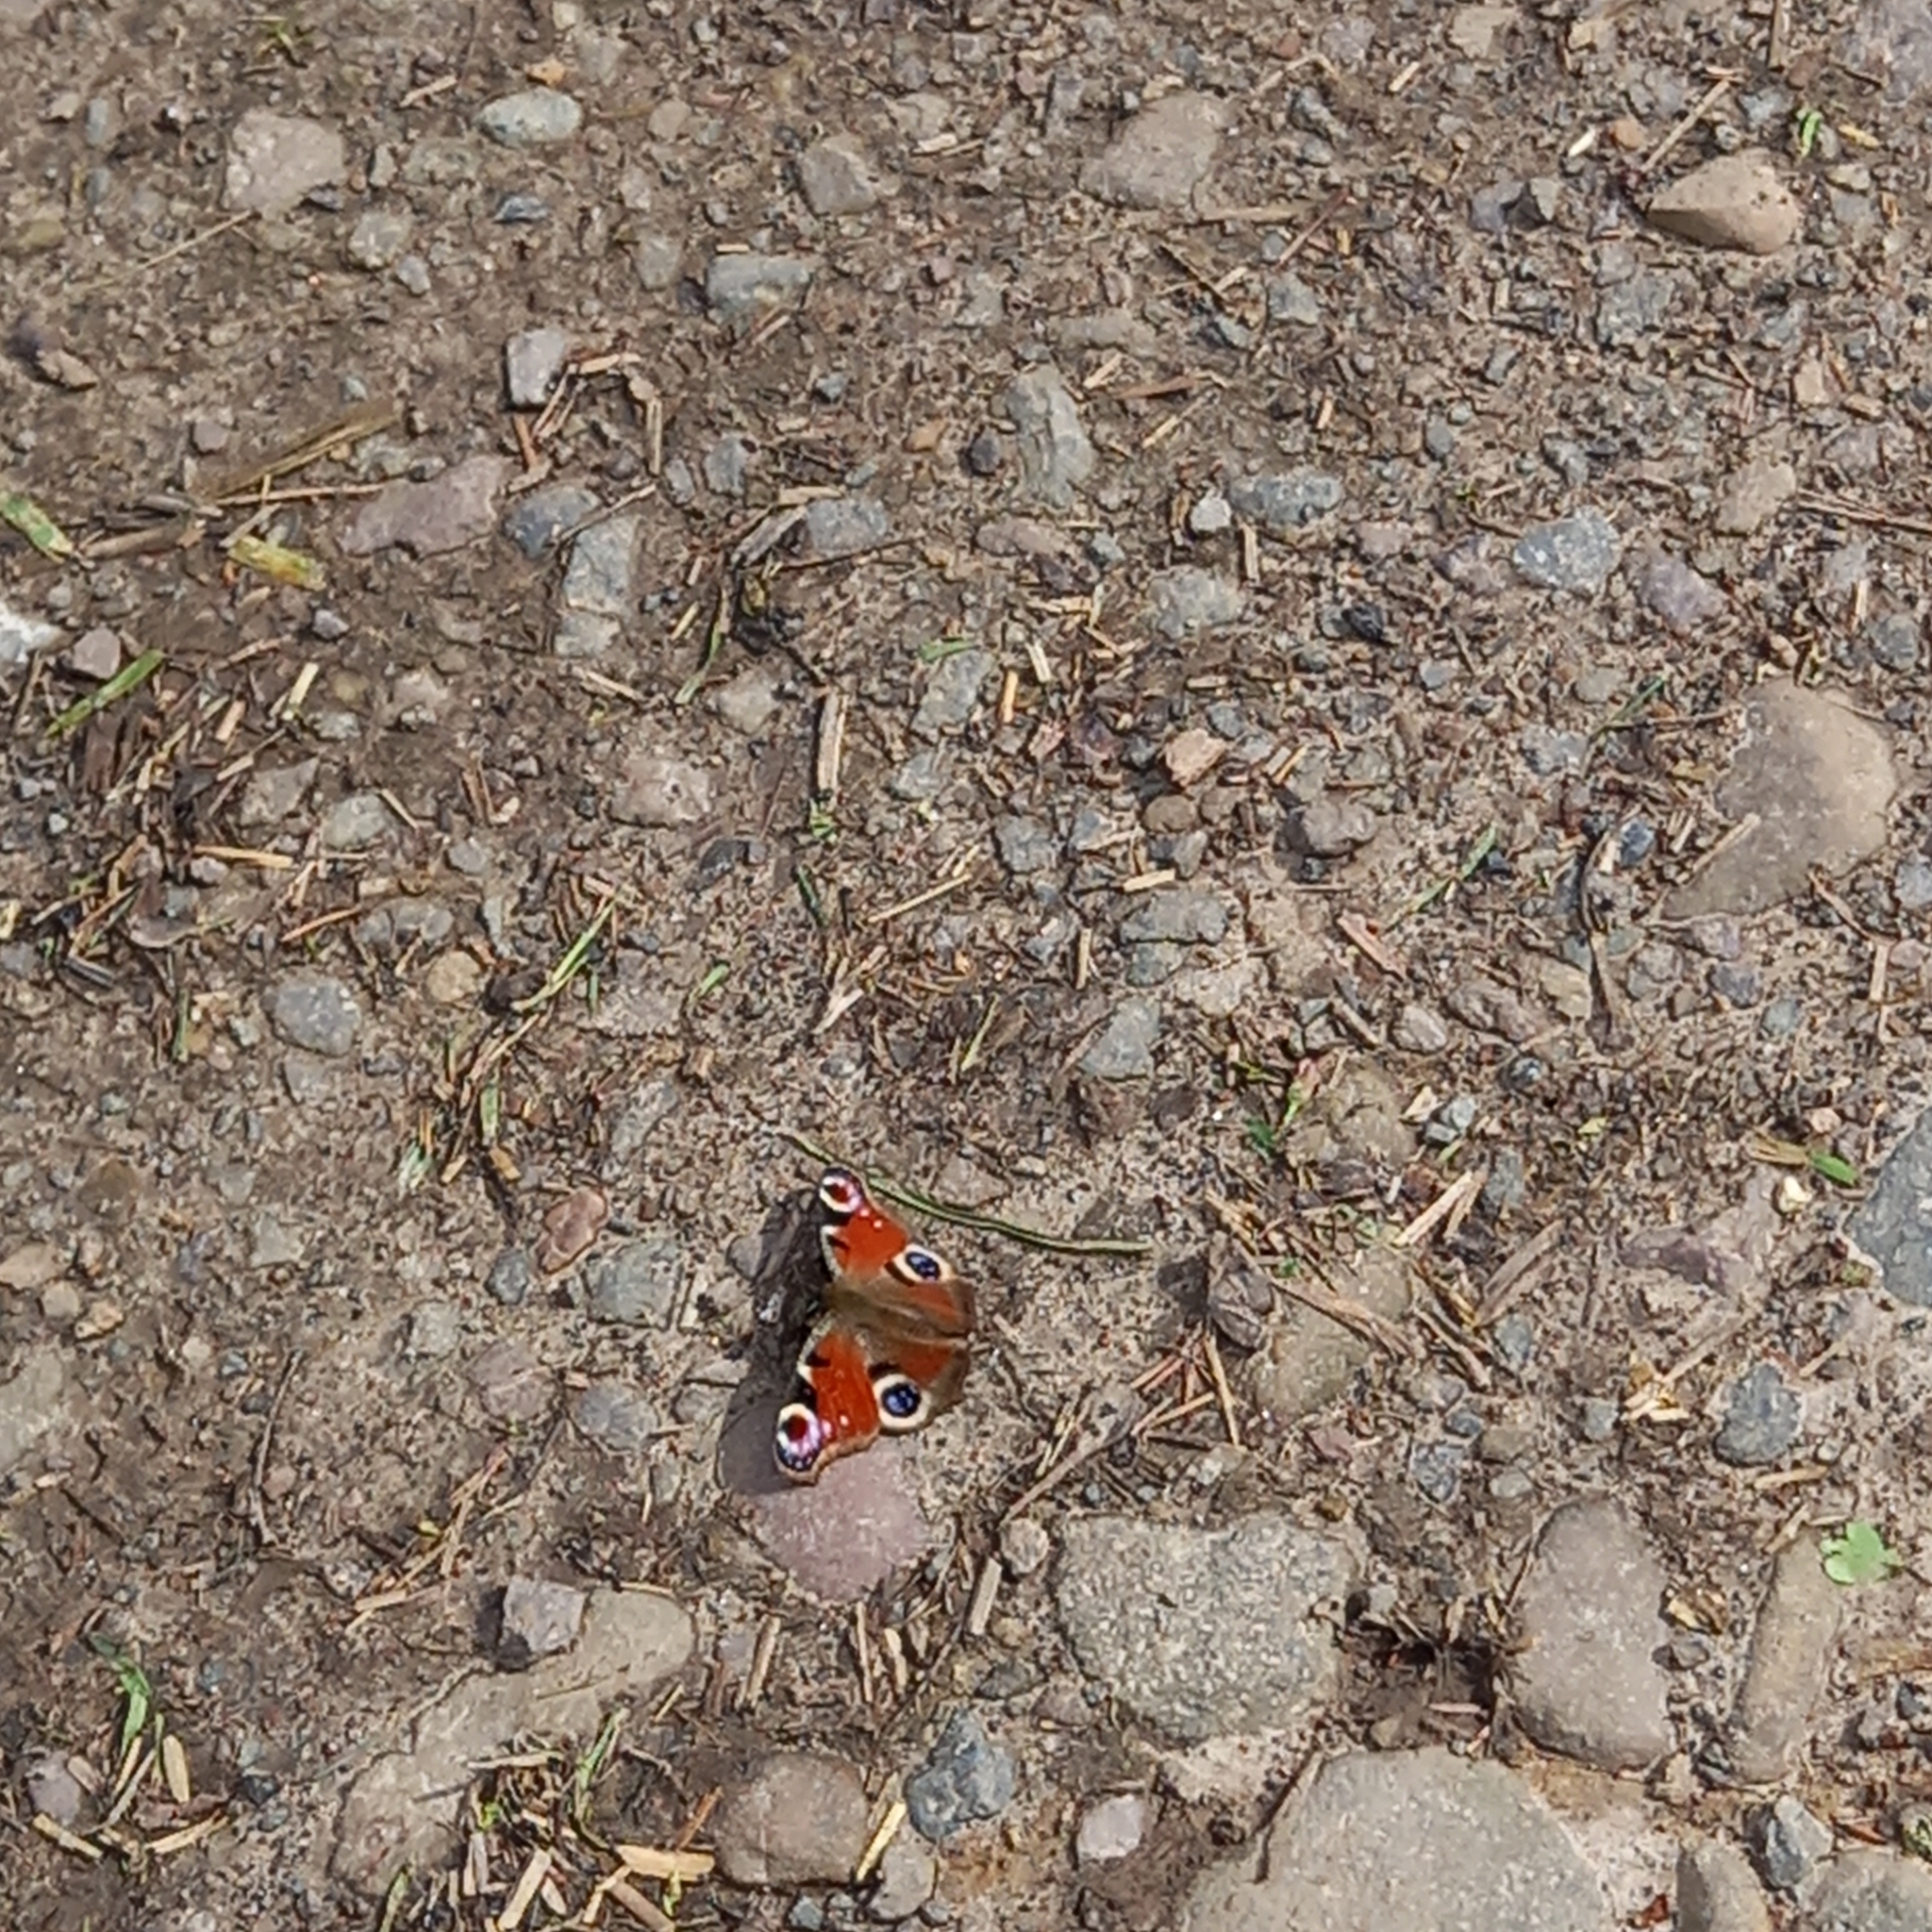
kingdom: Animalia
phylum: Arthropoda
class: Insecta
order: Lepidoptera
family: Nymphalidae
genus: Aglais
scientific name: Aglais io
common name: Peacock
